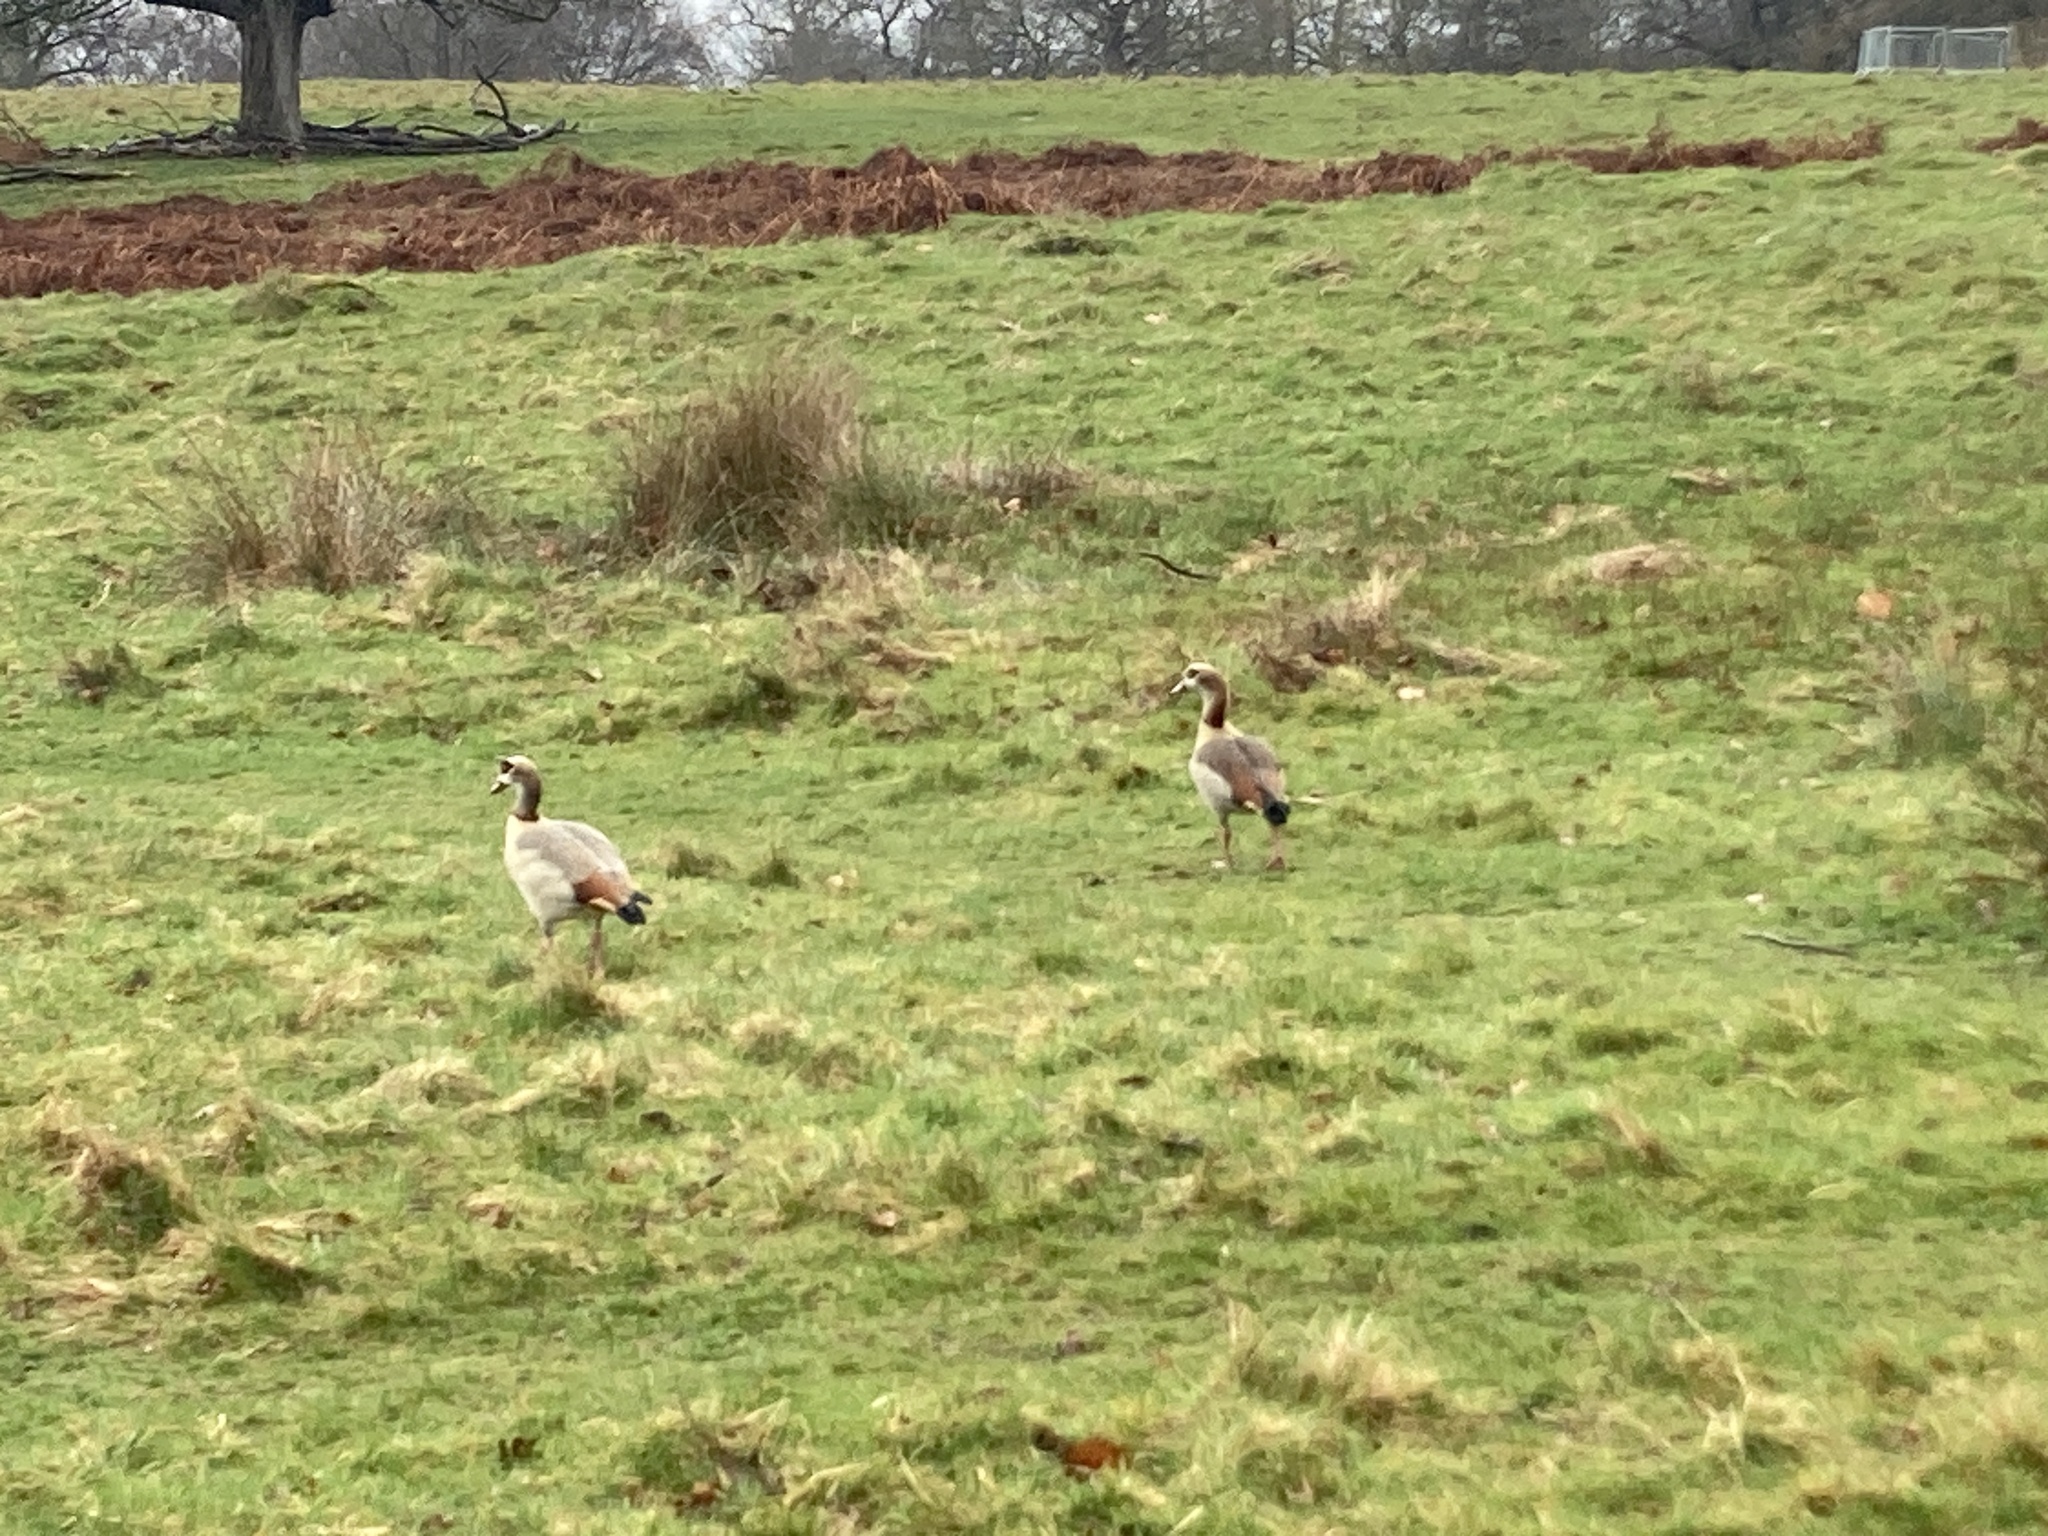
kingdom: Animalia
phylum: Chordata
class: Aves
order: Anseriformes
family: Anatidae
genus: Alopochen
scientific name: Alopochen aegyptiaca
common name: Egyptian goose
